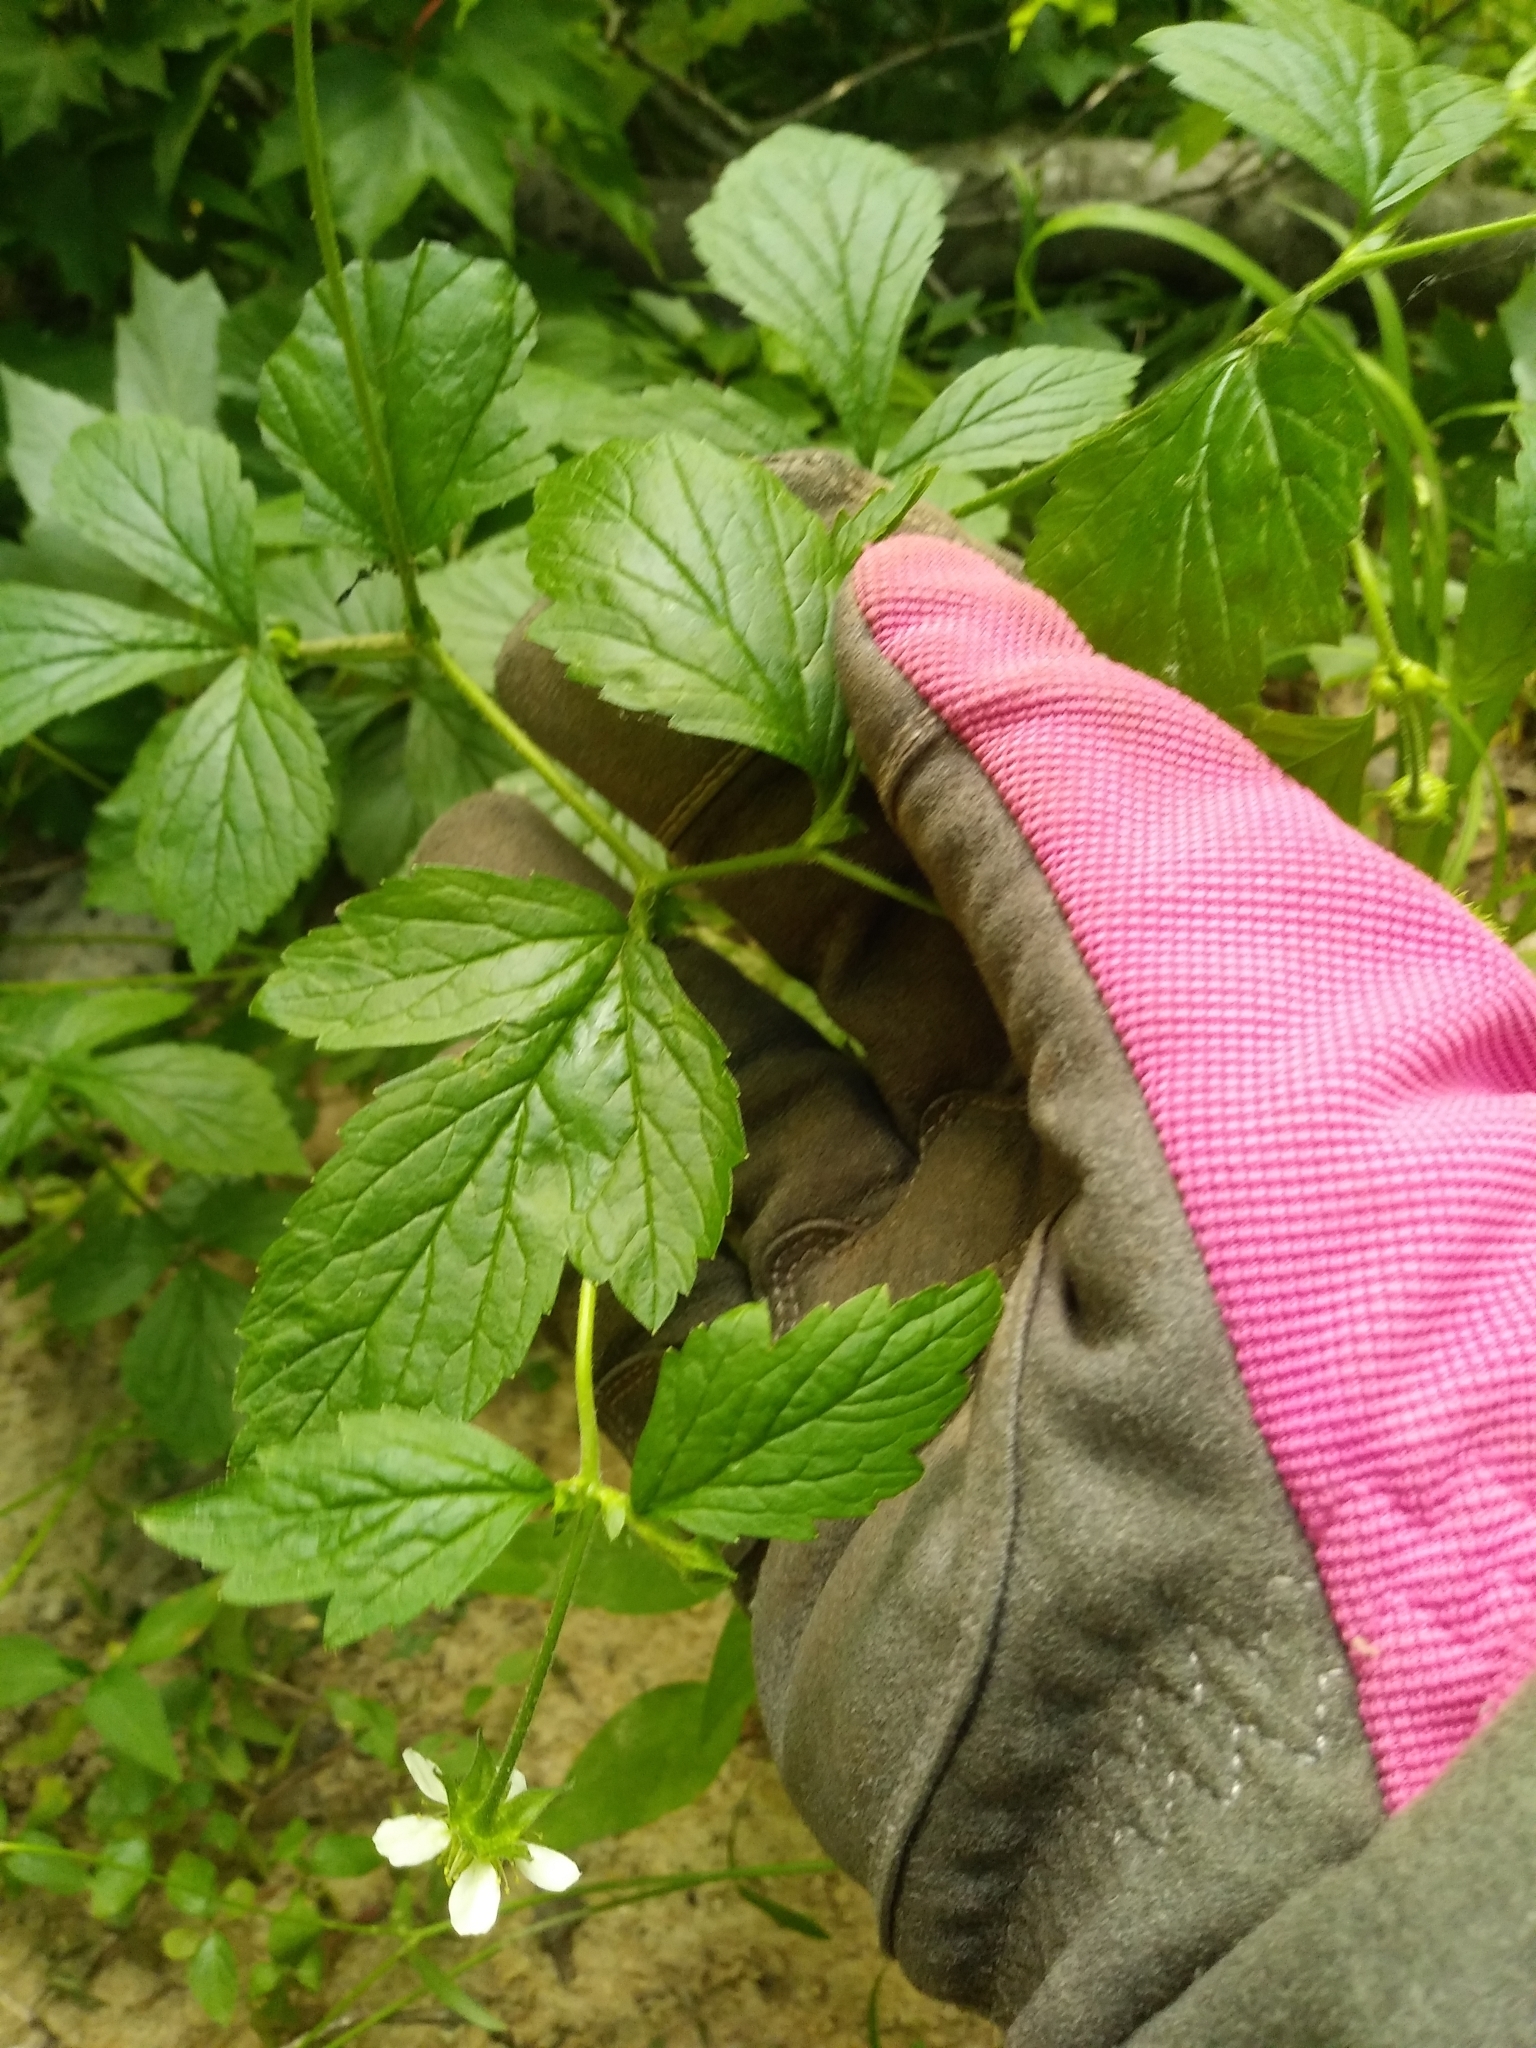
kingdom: Plantae
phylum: Tracheophyta
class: Magnoliopsida
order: Rosales
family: Rosaceae
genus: Geum
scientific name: Geum canadense
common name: White avens
